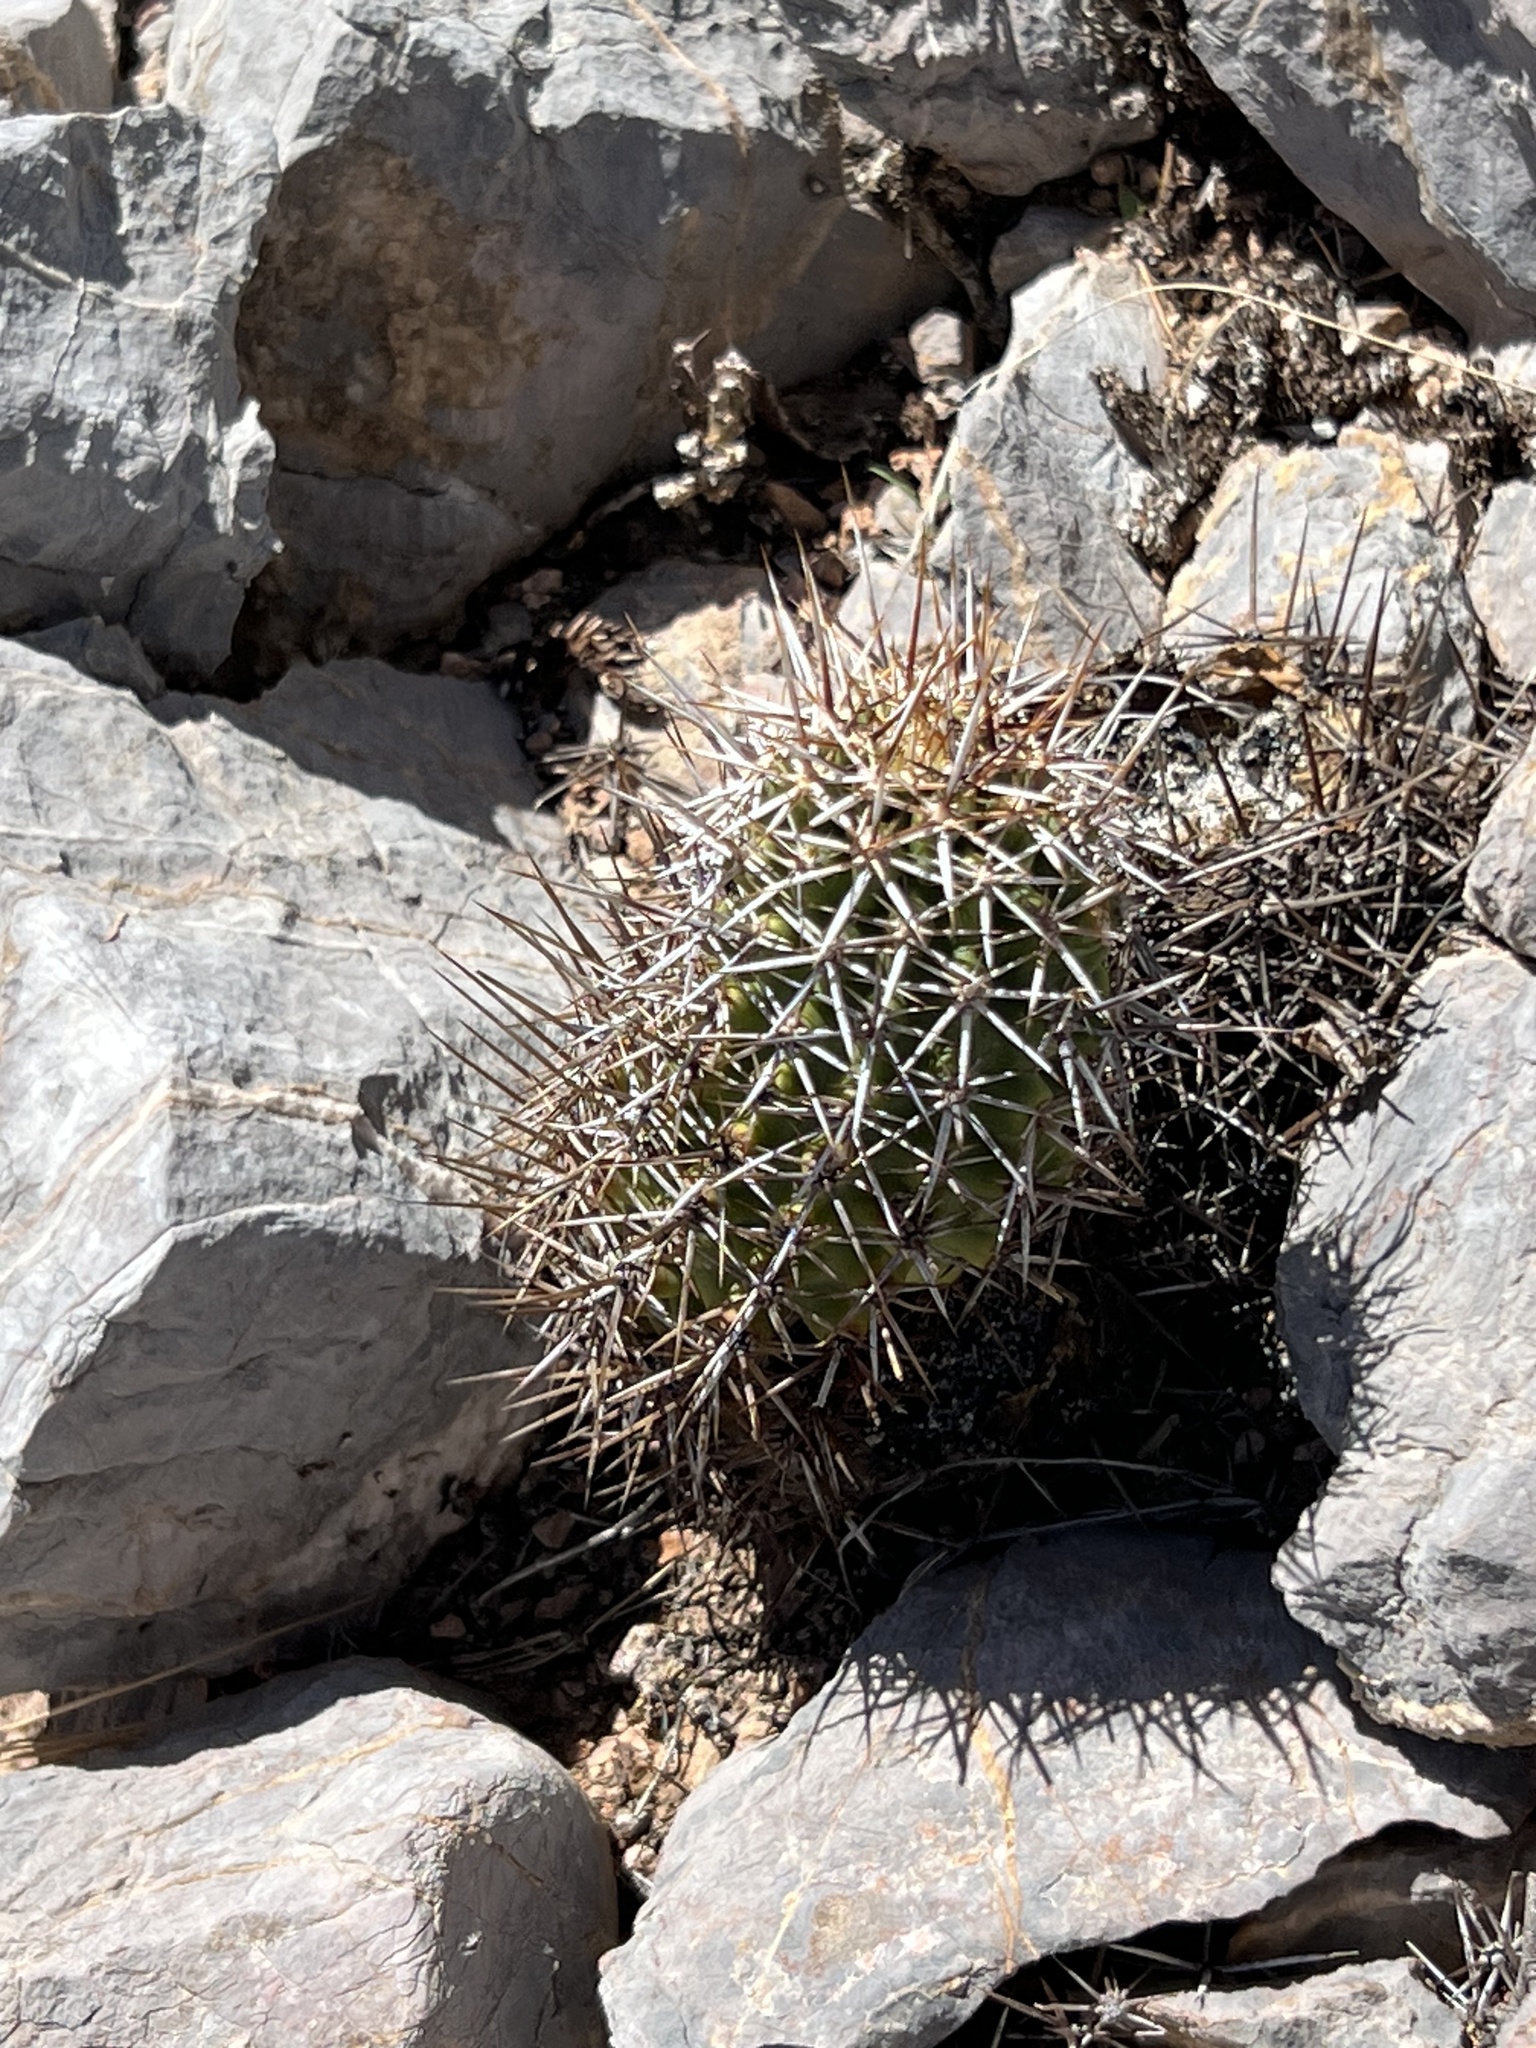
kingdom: Plantae
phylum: Tracheophyta
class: Magnoliopsida
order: Caryophyllales
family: Cactaceae
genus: Echinocereus
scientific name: Echinocereus fendleri
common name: Fendler's hedgehog cactus
